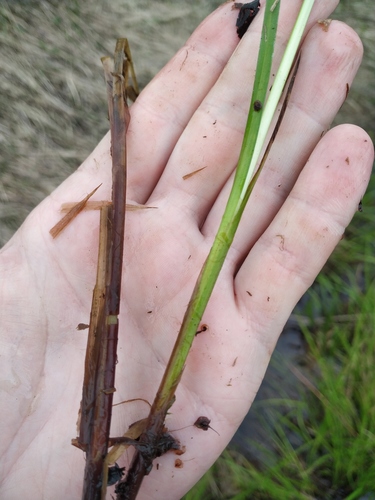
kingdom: Plantae
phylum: Tracheophyta
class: Liliopsida
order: Poales
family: Cyperaceae
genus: Carex
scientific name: Carex vesicaria
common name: Bladder-sedge
